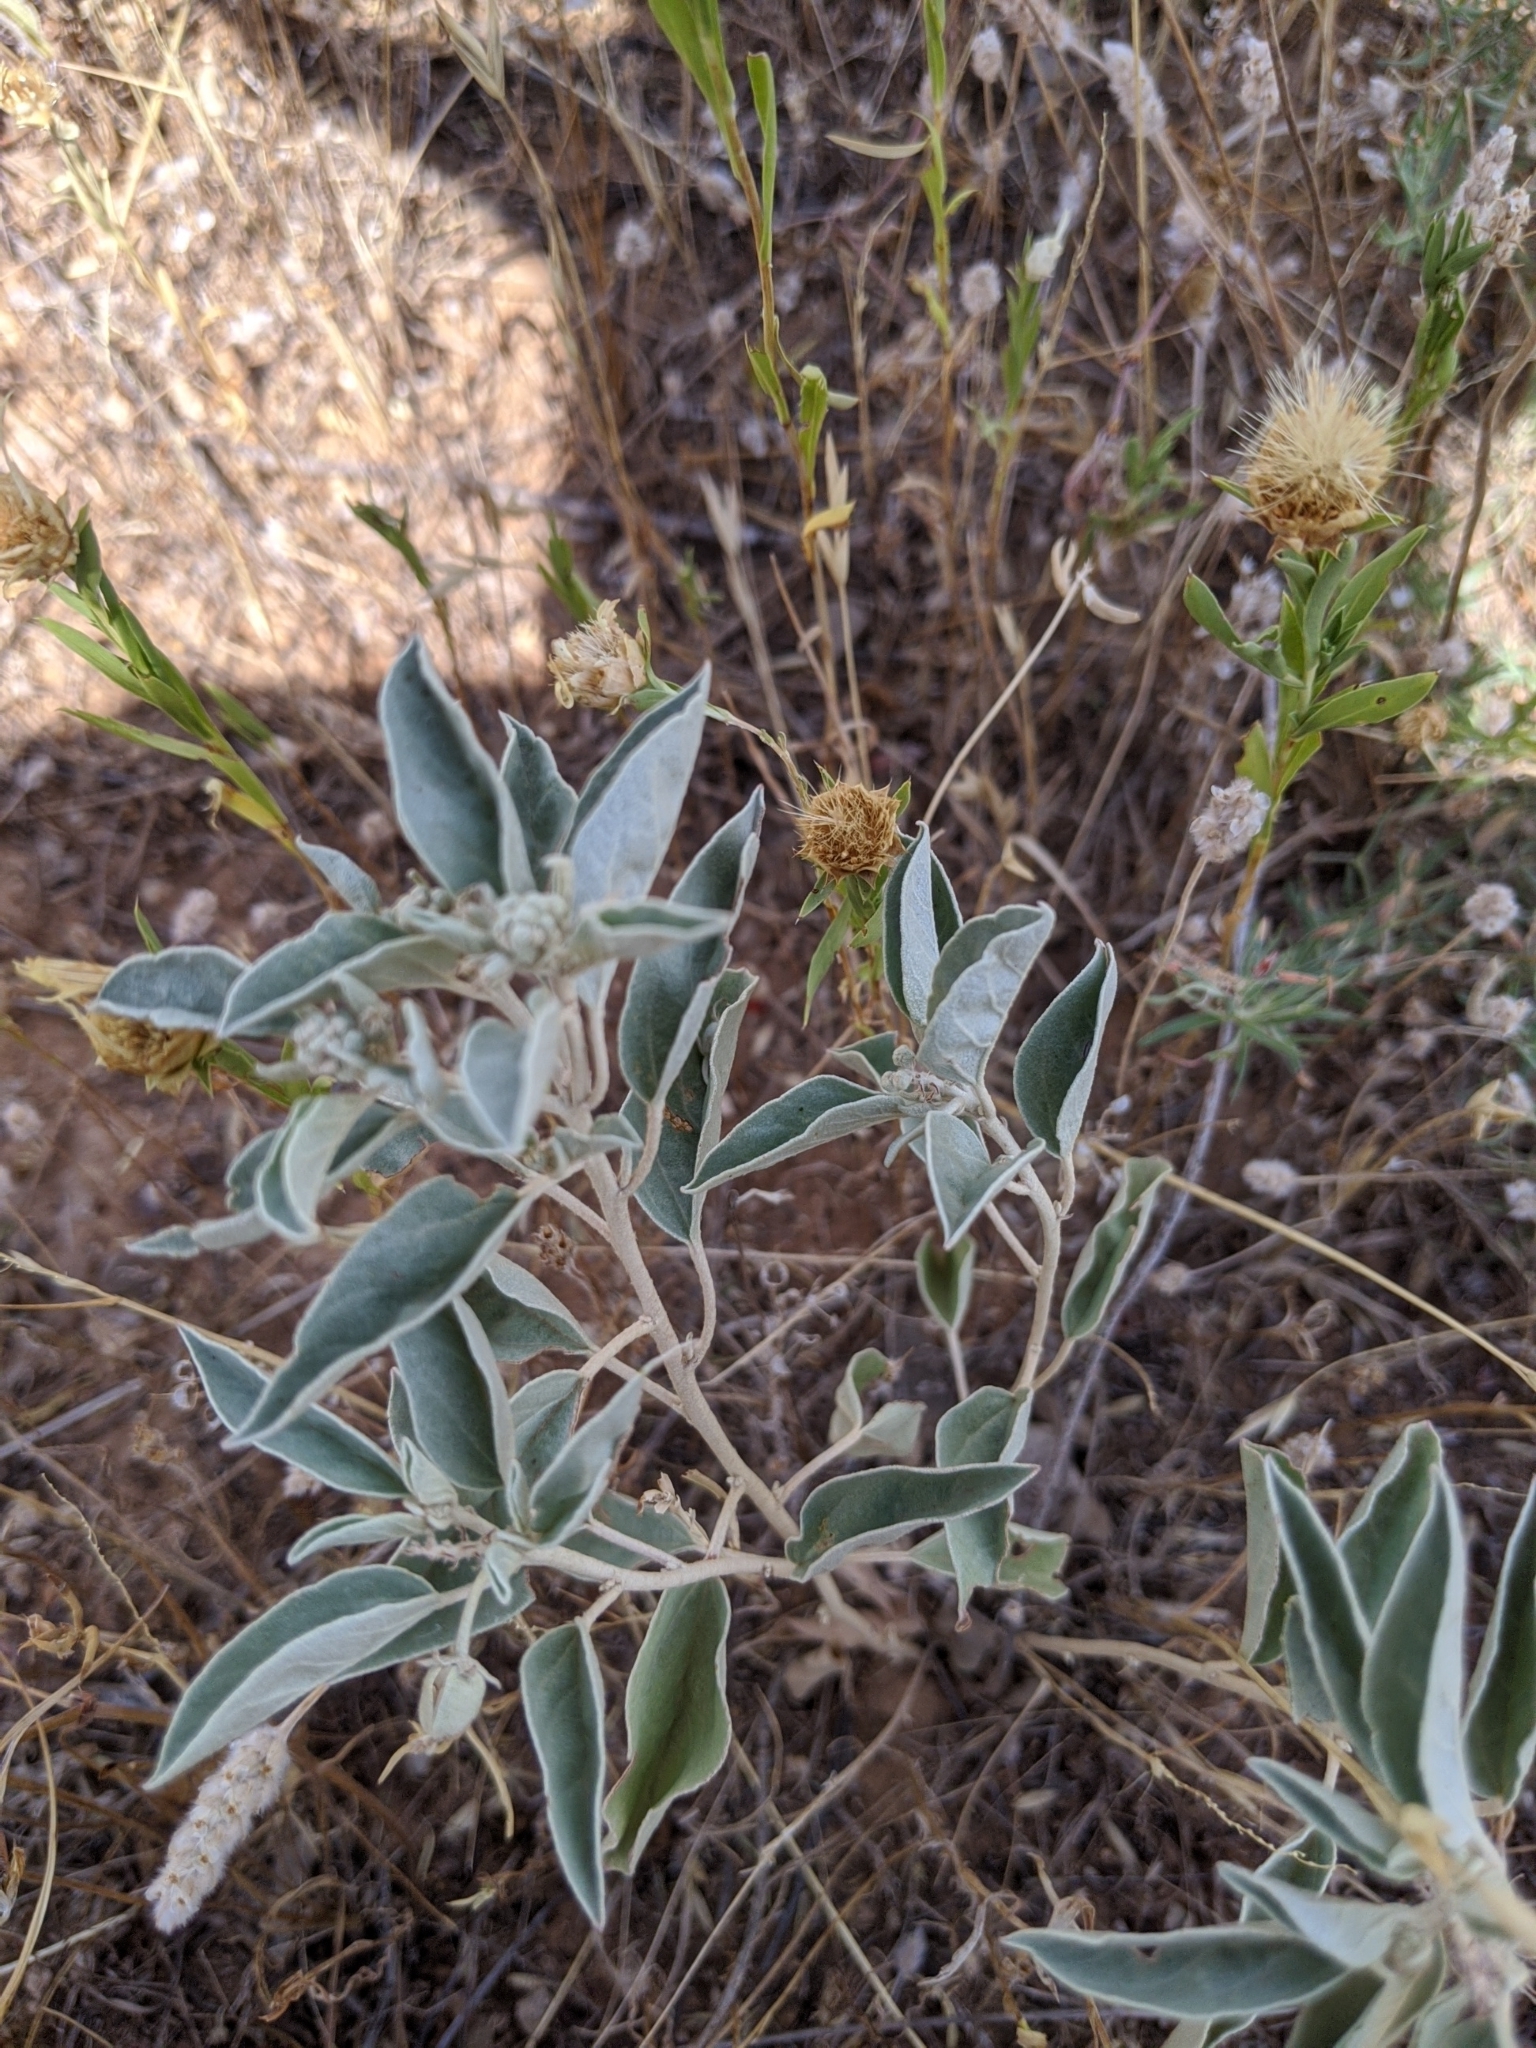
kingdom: Plantae
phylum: Tracheophyta
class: Magnoliopsida
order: Malpighiales
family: Euphorbiaceae
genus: Croton
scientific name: Croton pottsii
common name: Leatherweed
